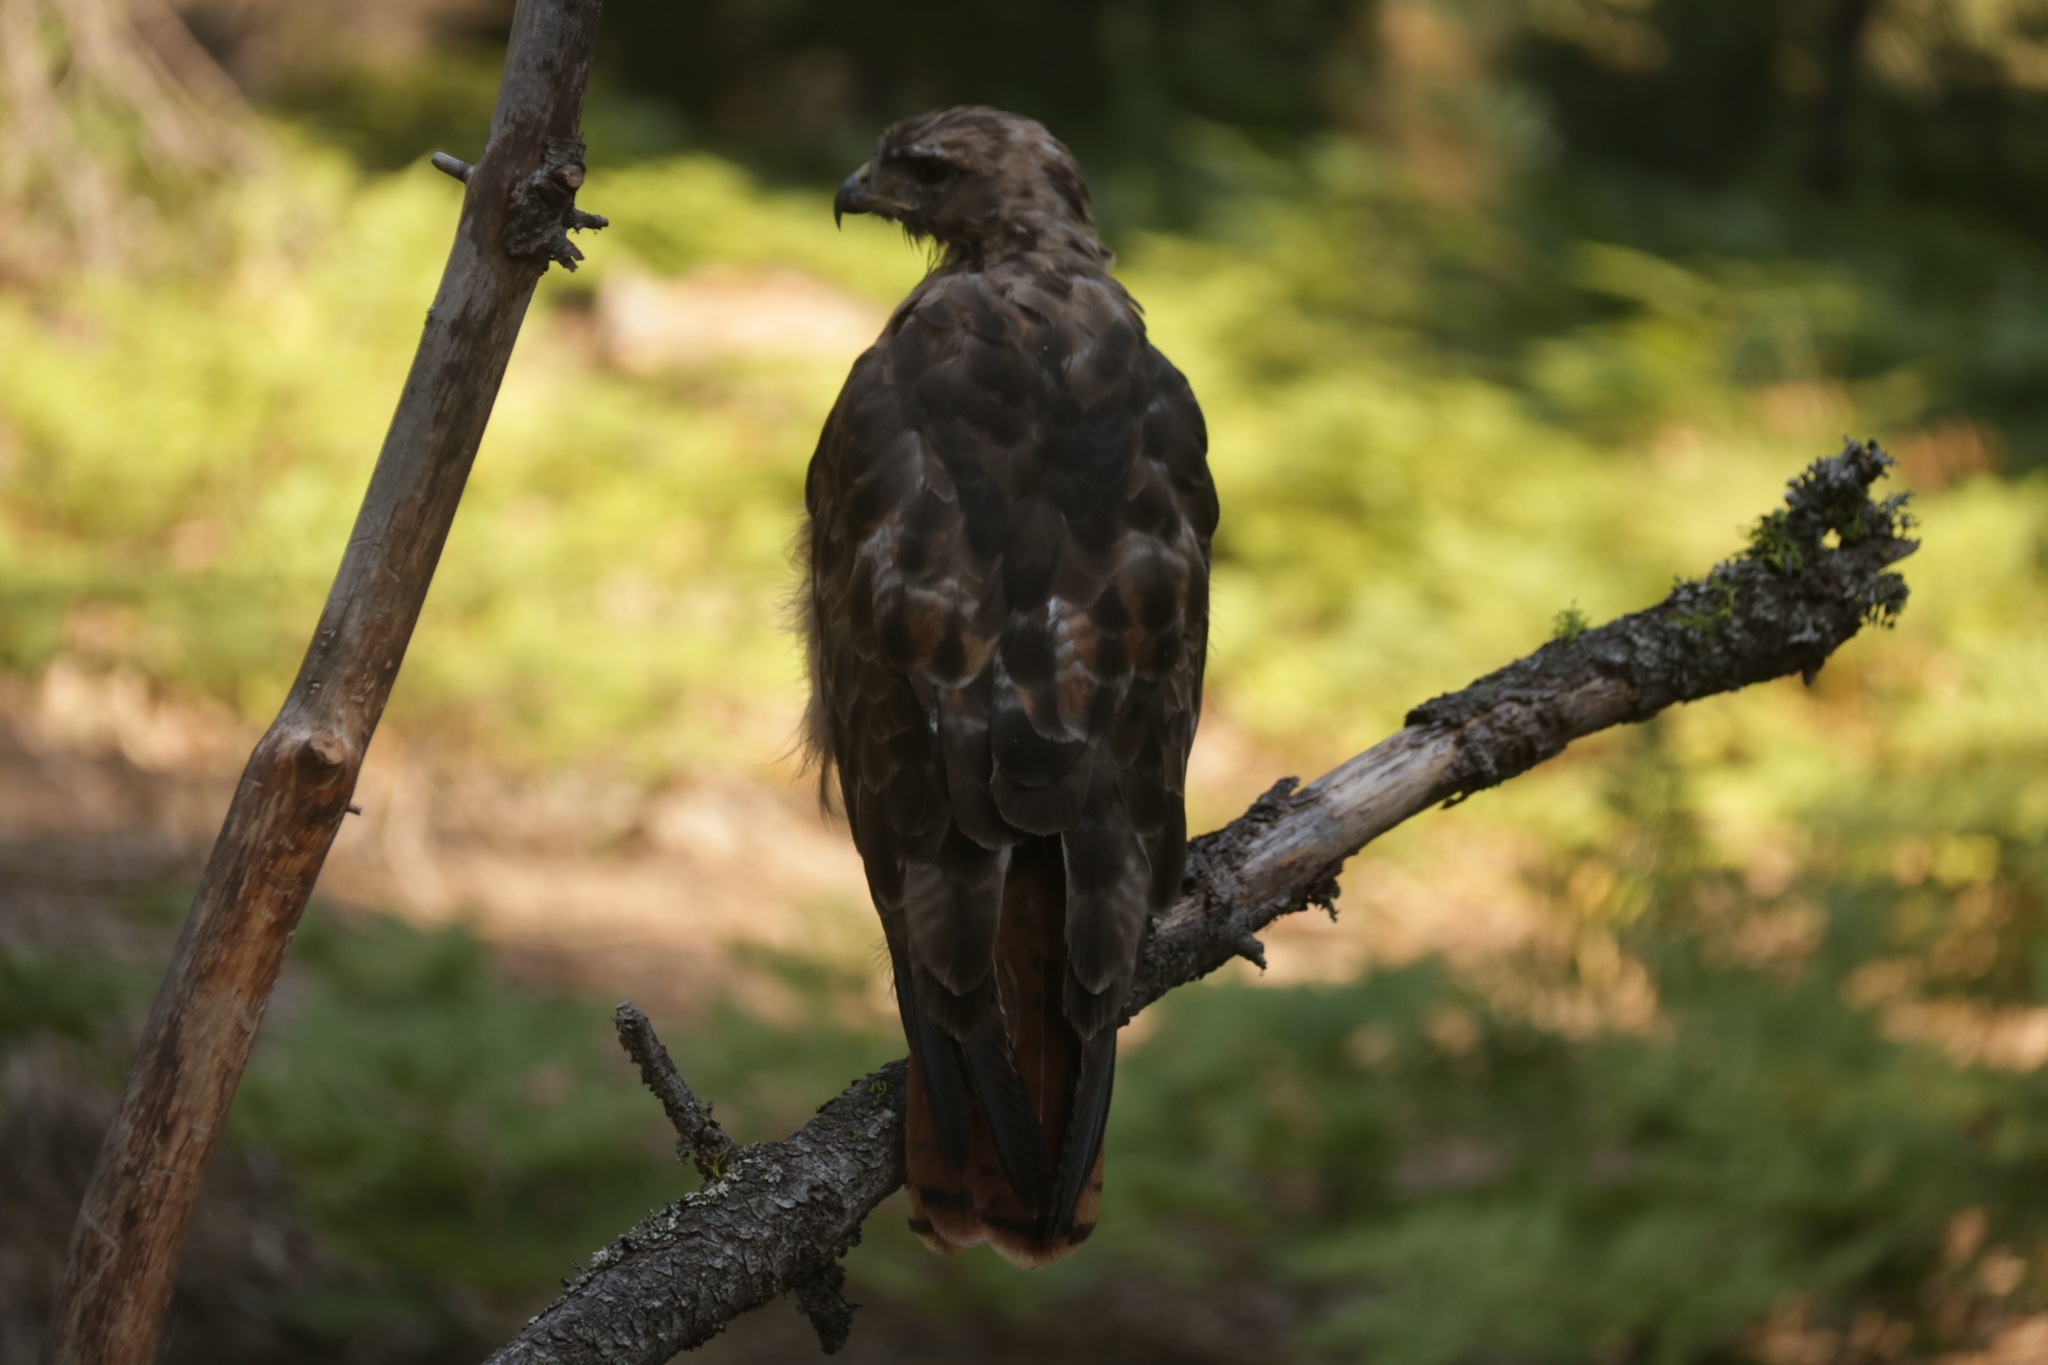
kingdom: Animalia
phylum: Chordata
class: Aves
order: Accipitriformes
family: Accipitridae
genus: Buteo
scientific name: Buteo jamaicensis
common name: Red-tailed hawk
